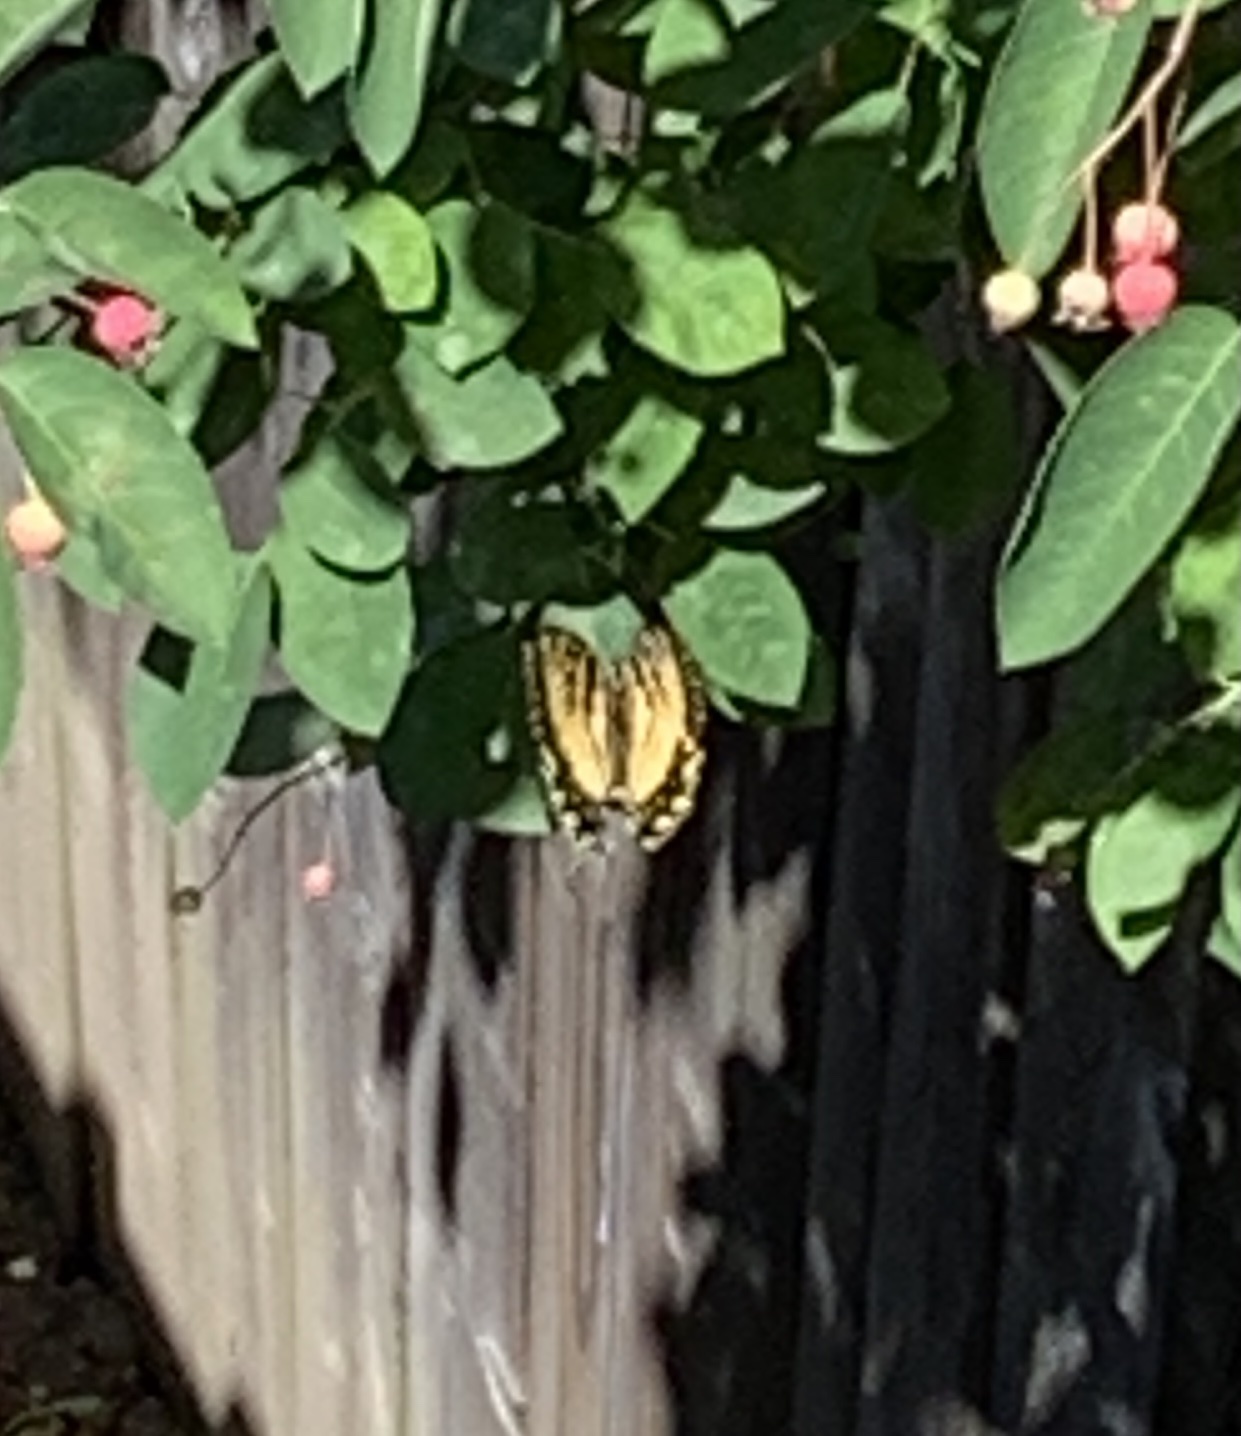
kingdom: Animalia
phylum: Arthropoda
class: Insecta
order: Lepidoptera
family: Papilionidae
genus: Papilio
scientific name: Papilio glaucus
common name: Tiger swallowtail
